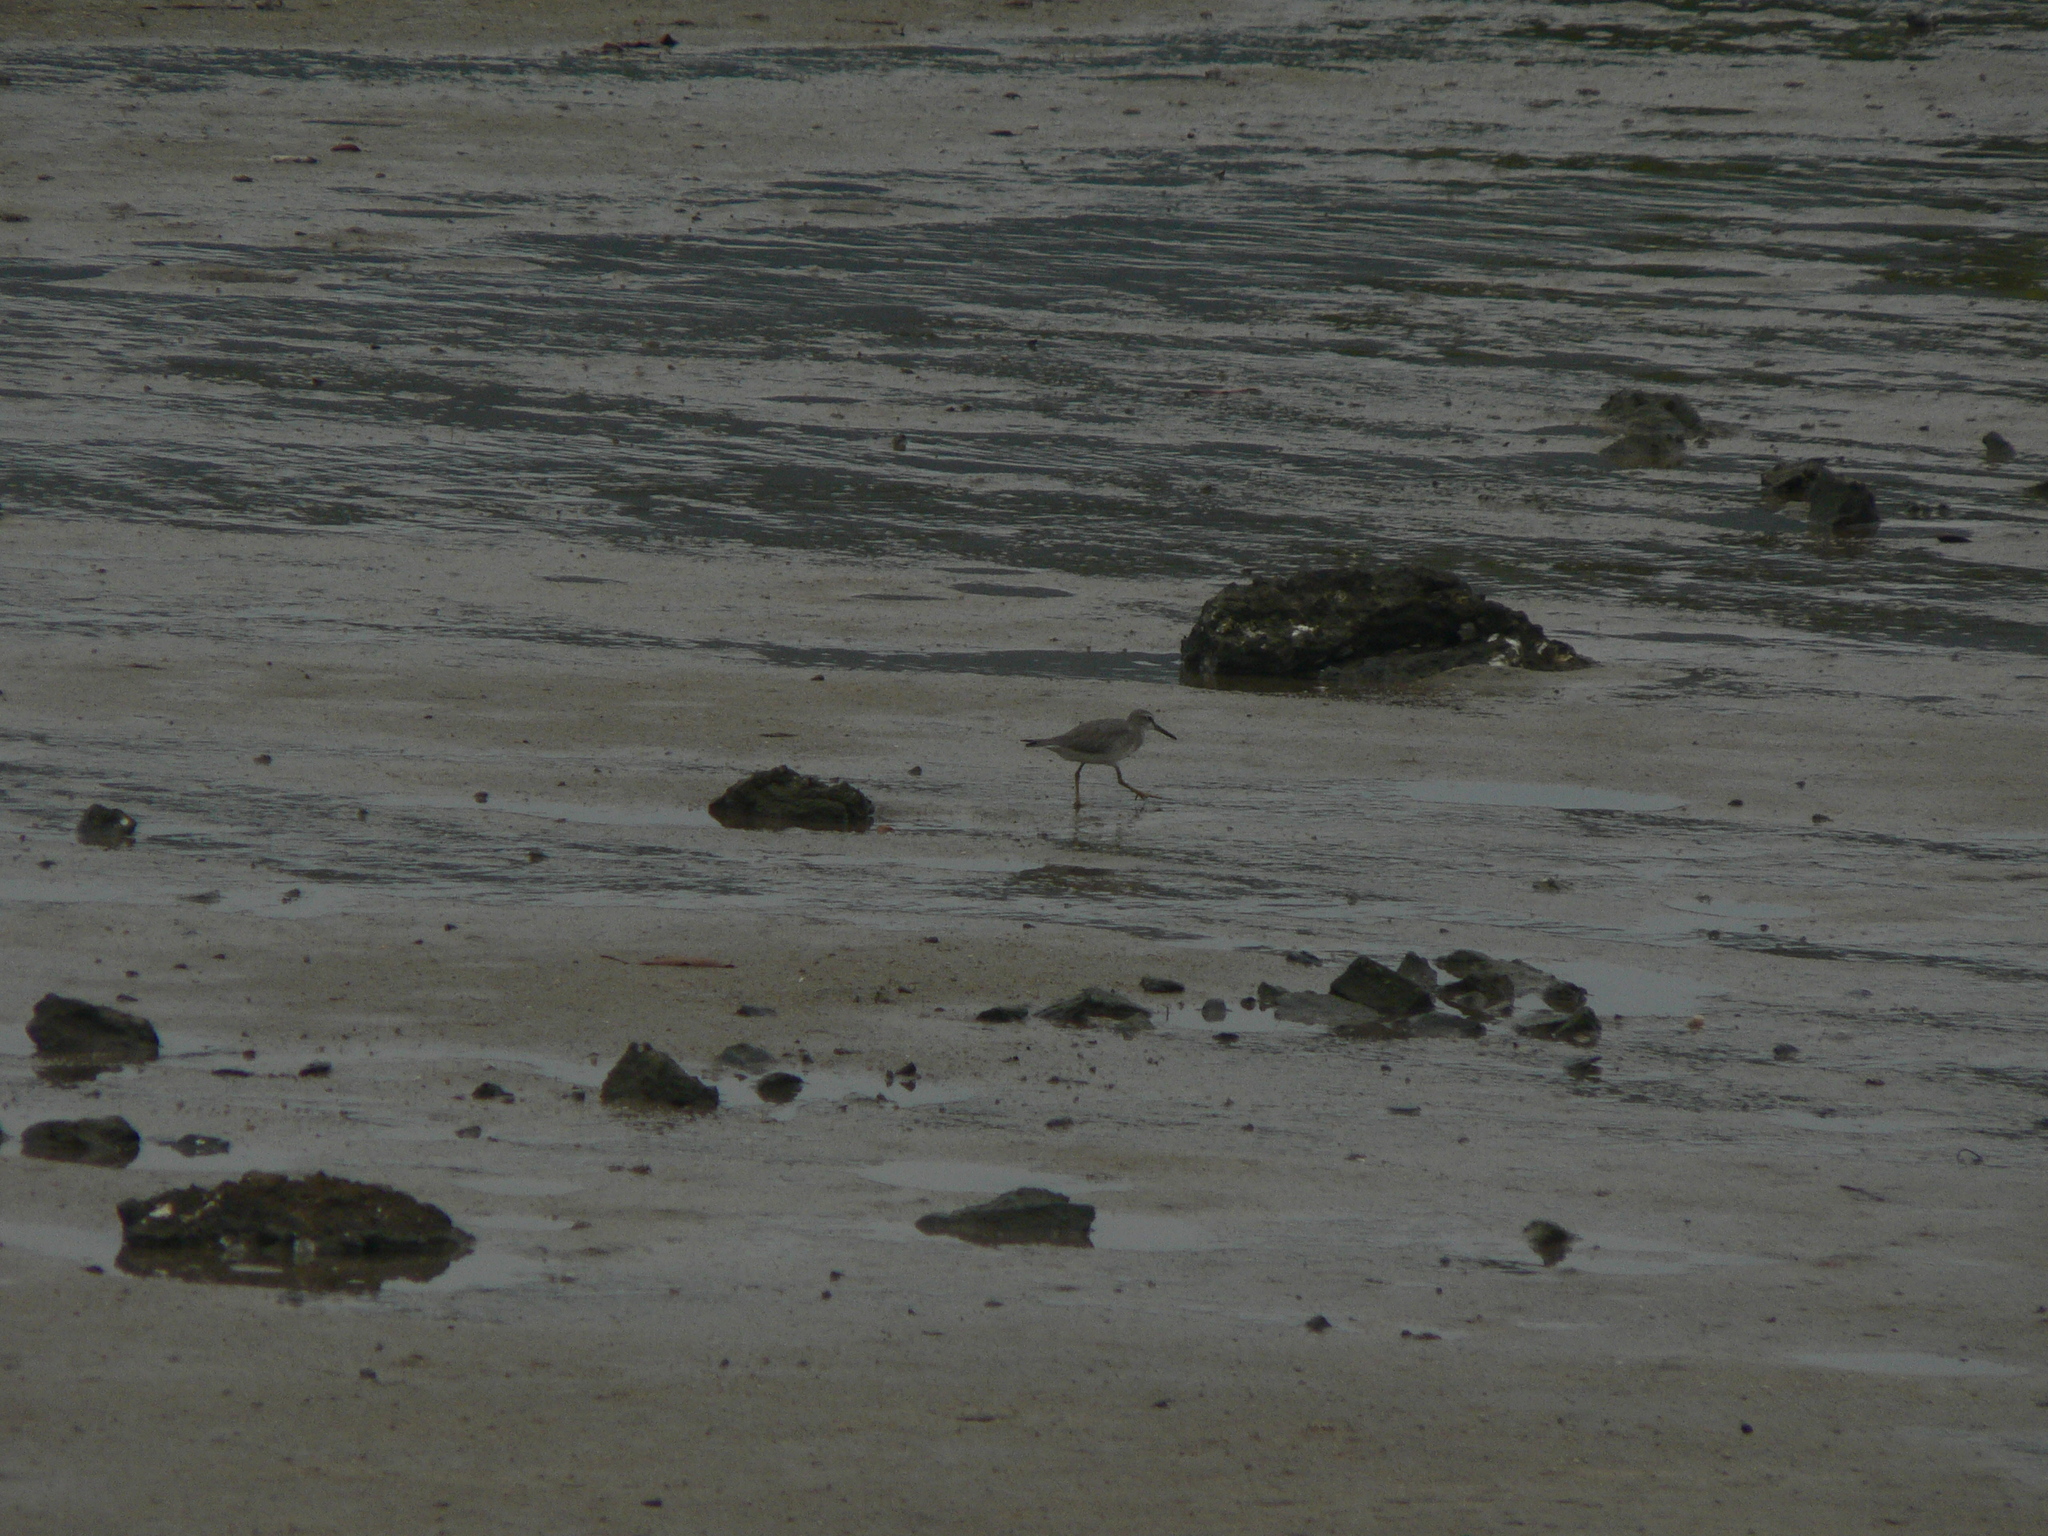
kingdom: Animalia
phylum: Chordata
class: Aves
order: Charadriiformes
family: Scolopacidae
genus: Tringa
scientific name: Tringa brevipes
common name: Grey-tailed tattler
